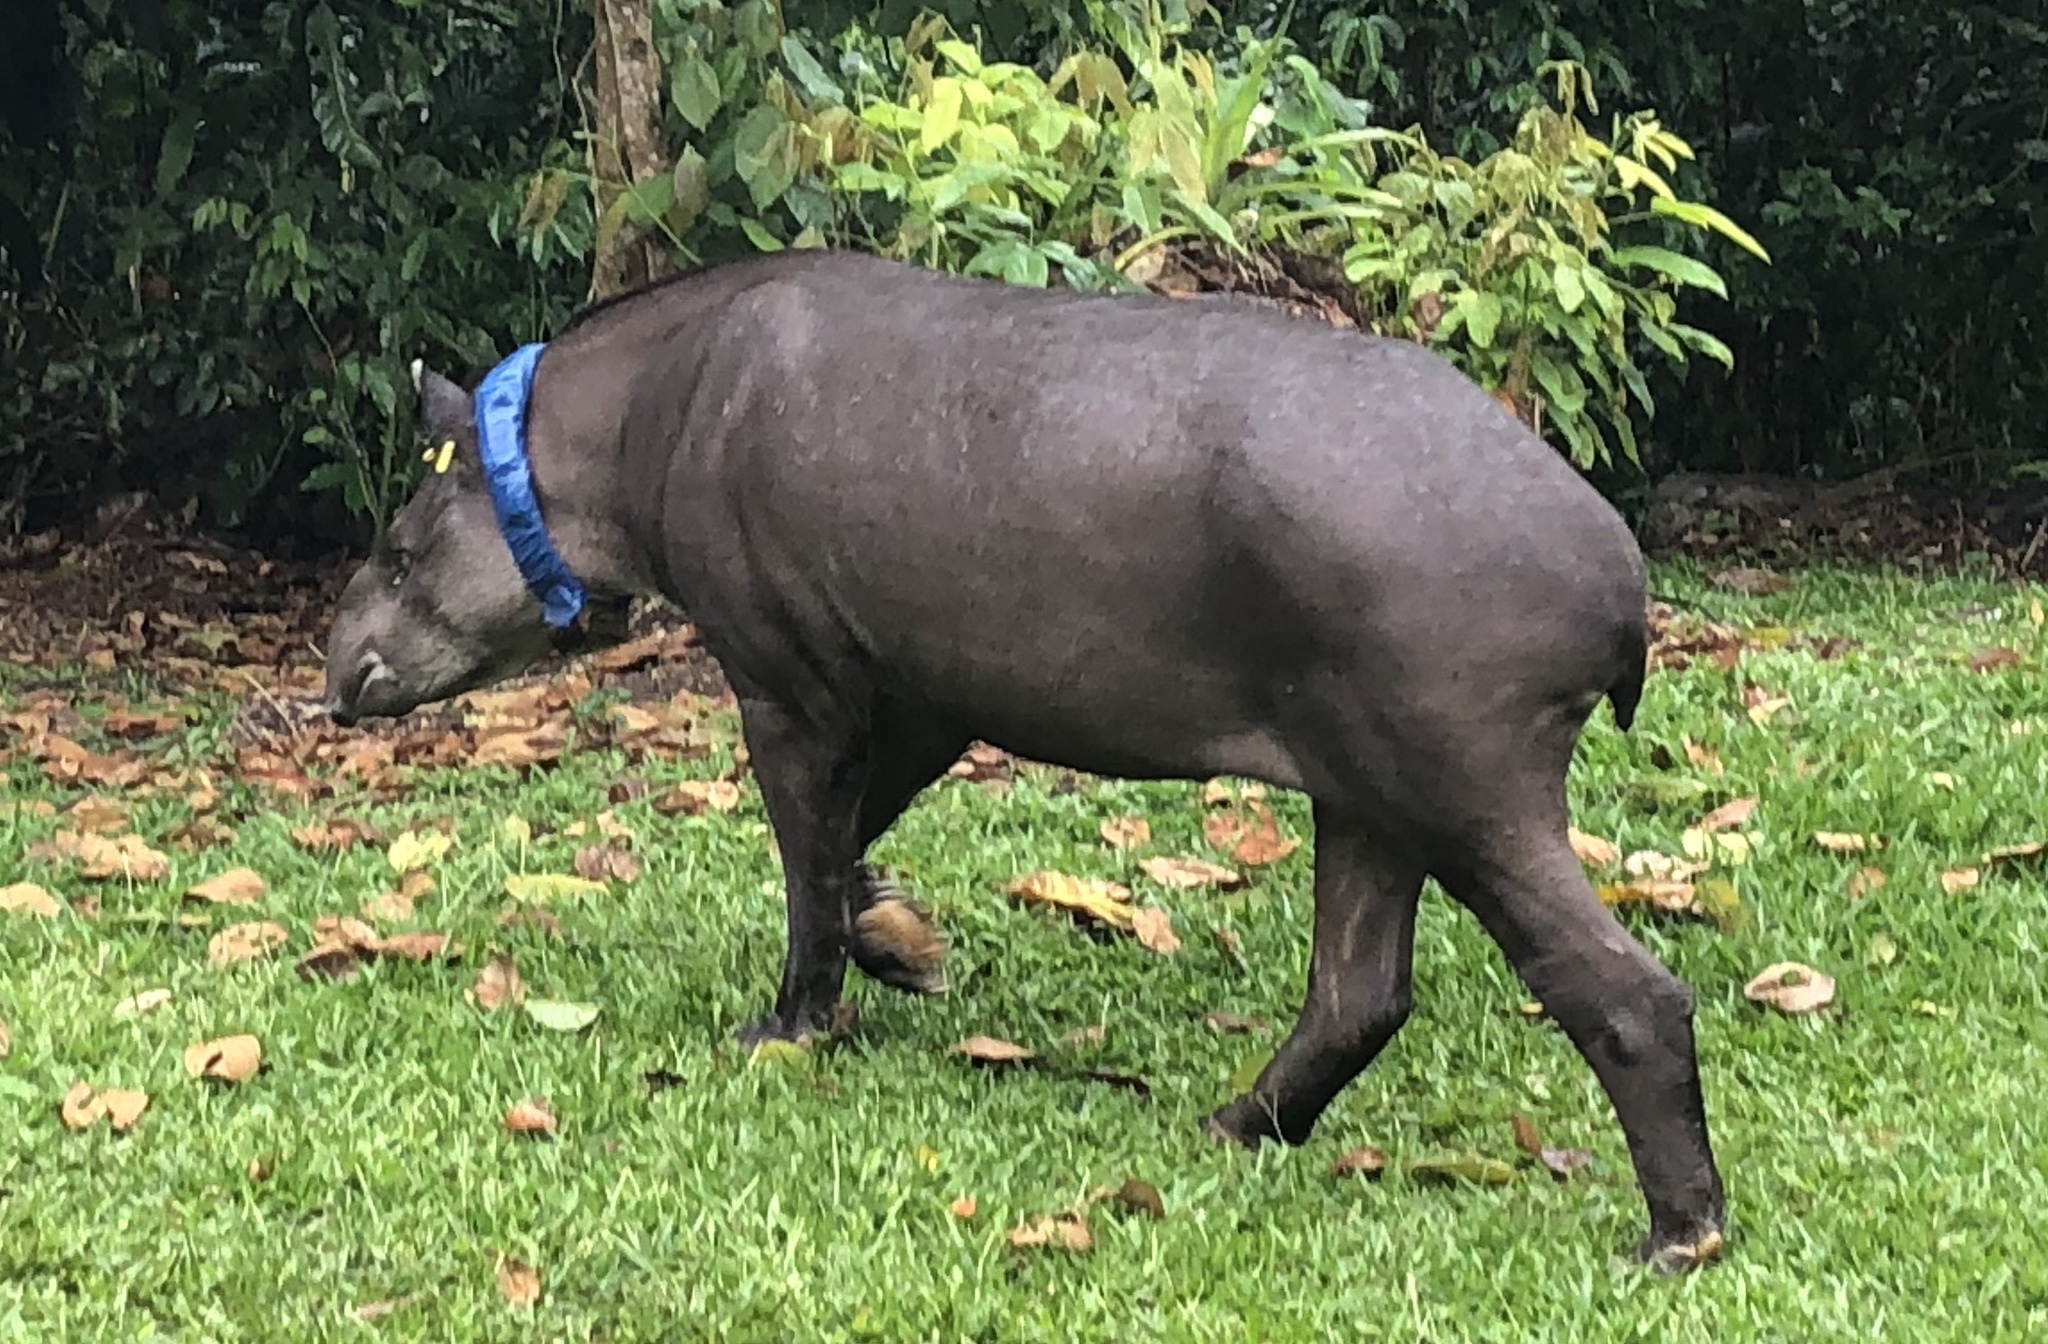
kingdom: Animalia
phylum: Chordata
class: Mammalia
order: Perissodactyla
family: Tapiridae
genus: Tapirus
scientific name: Tapirus terrestris
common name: Brazilian tapir
